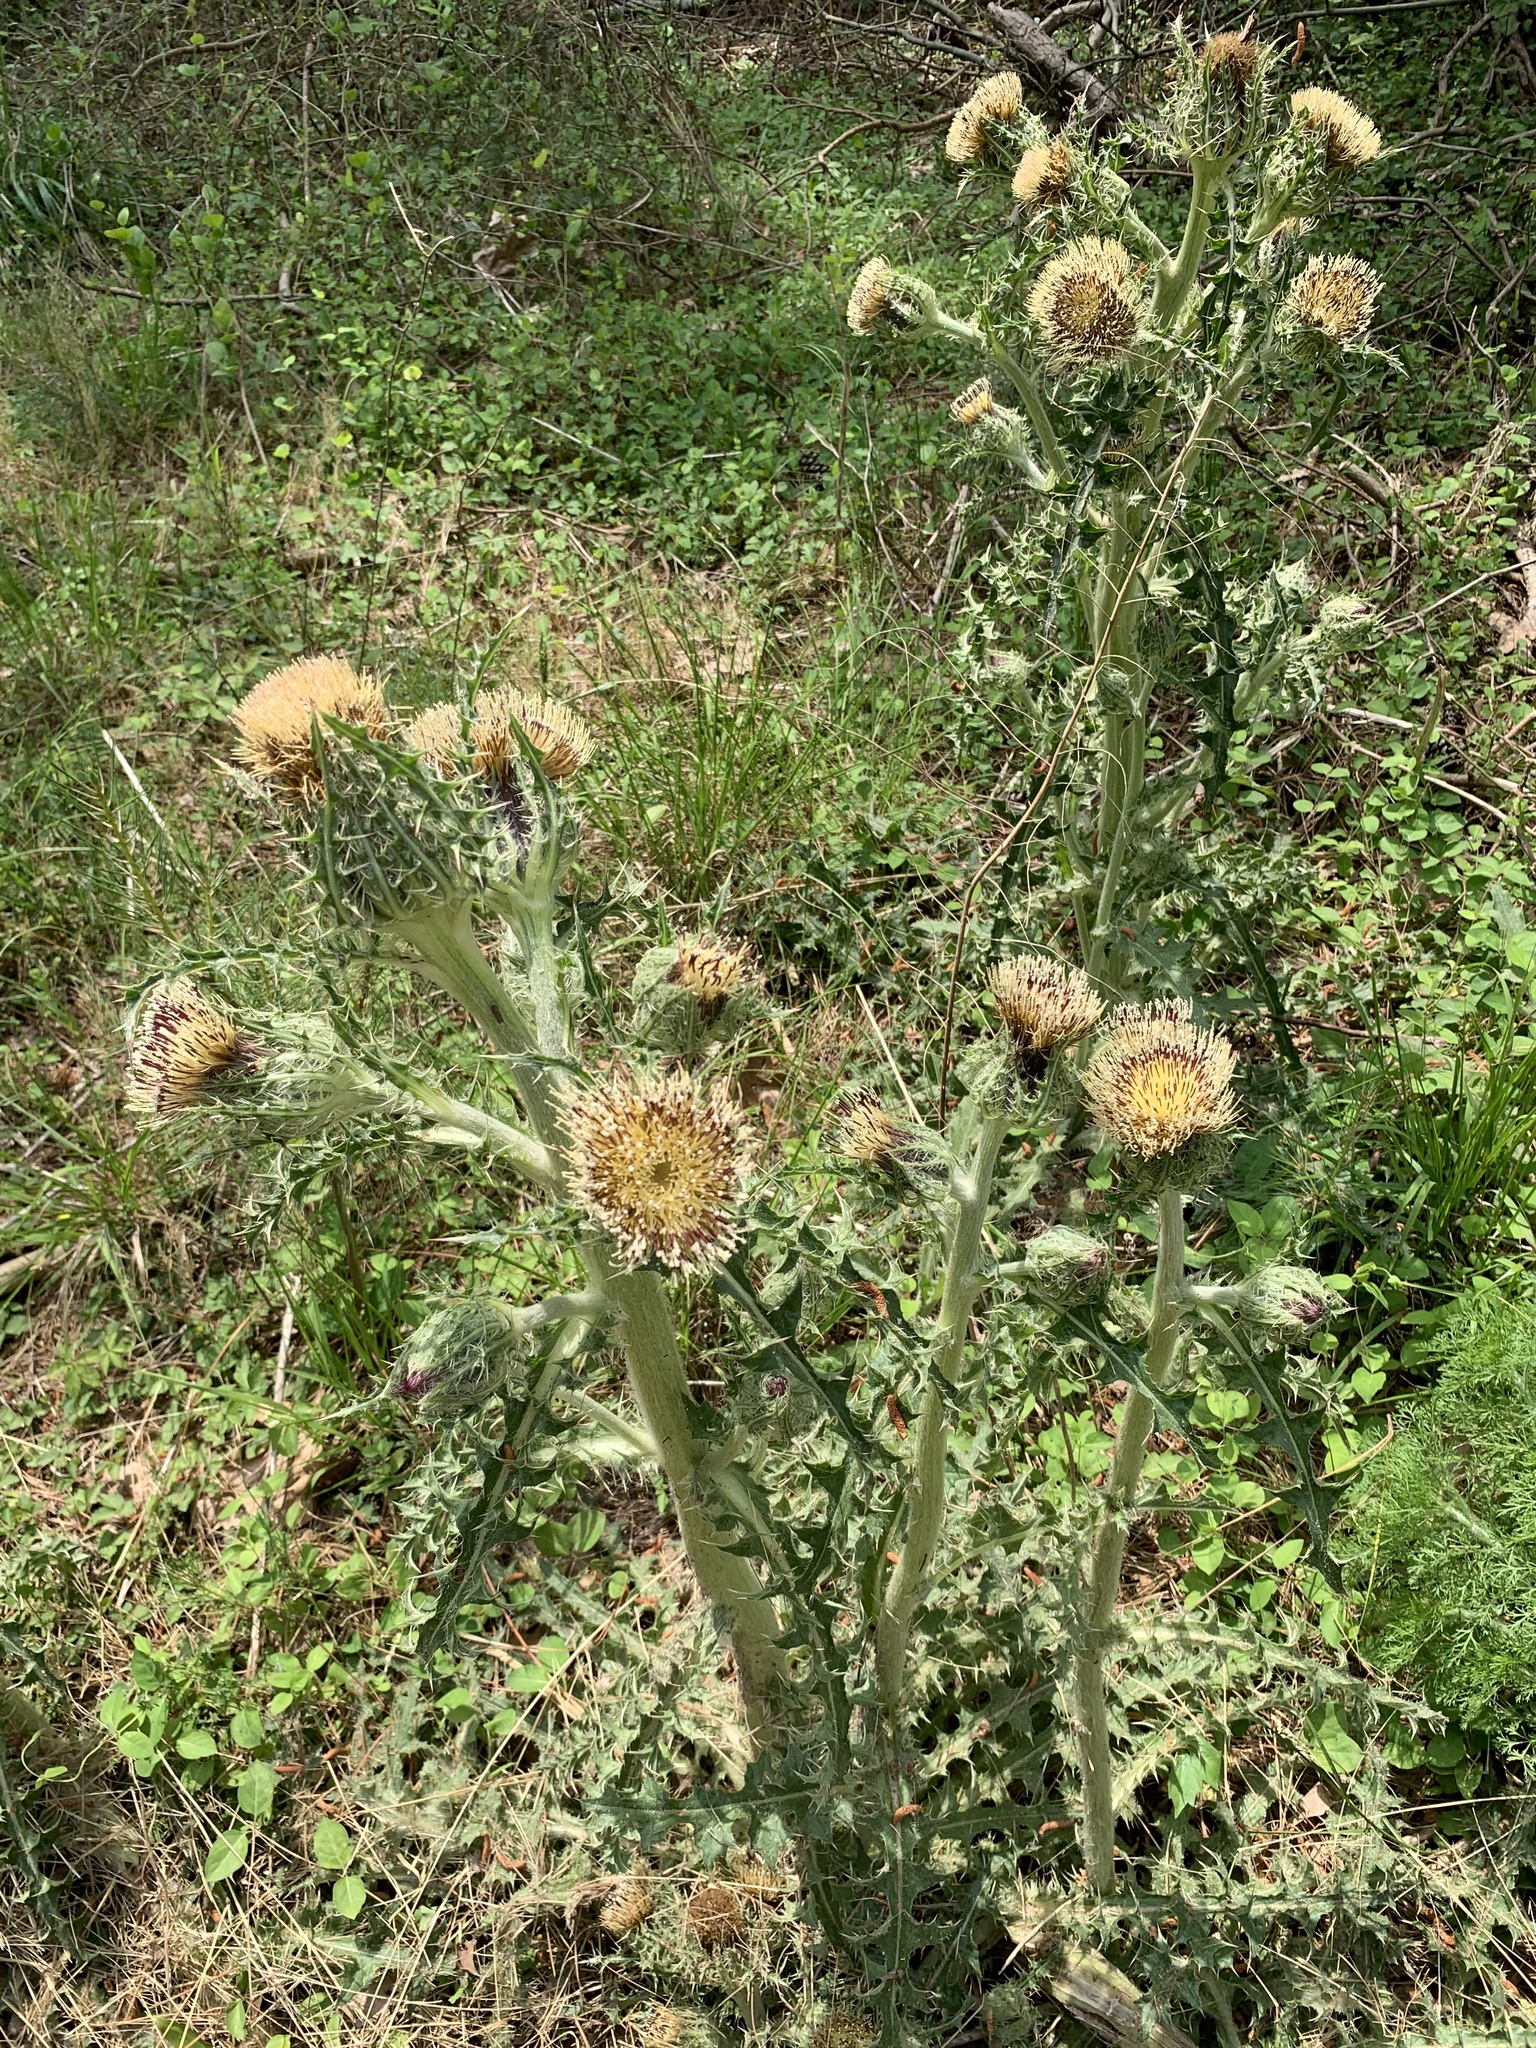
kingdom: Plantae
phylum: Tracheophyta
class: Magnoliopsida
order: Asterales
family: Asteraceae
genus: Cirsium
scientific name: Cirsium horridulum
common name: Bristly thistle
